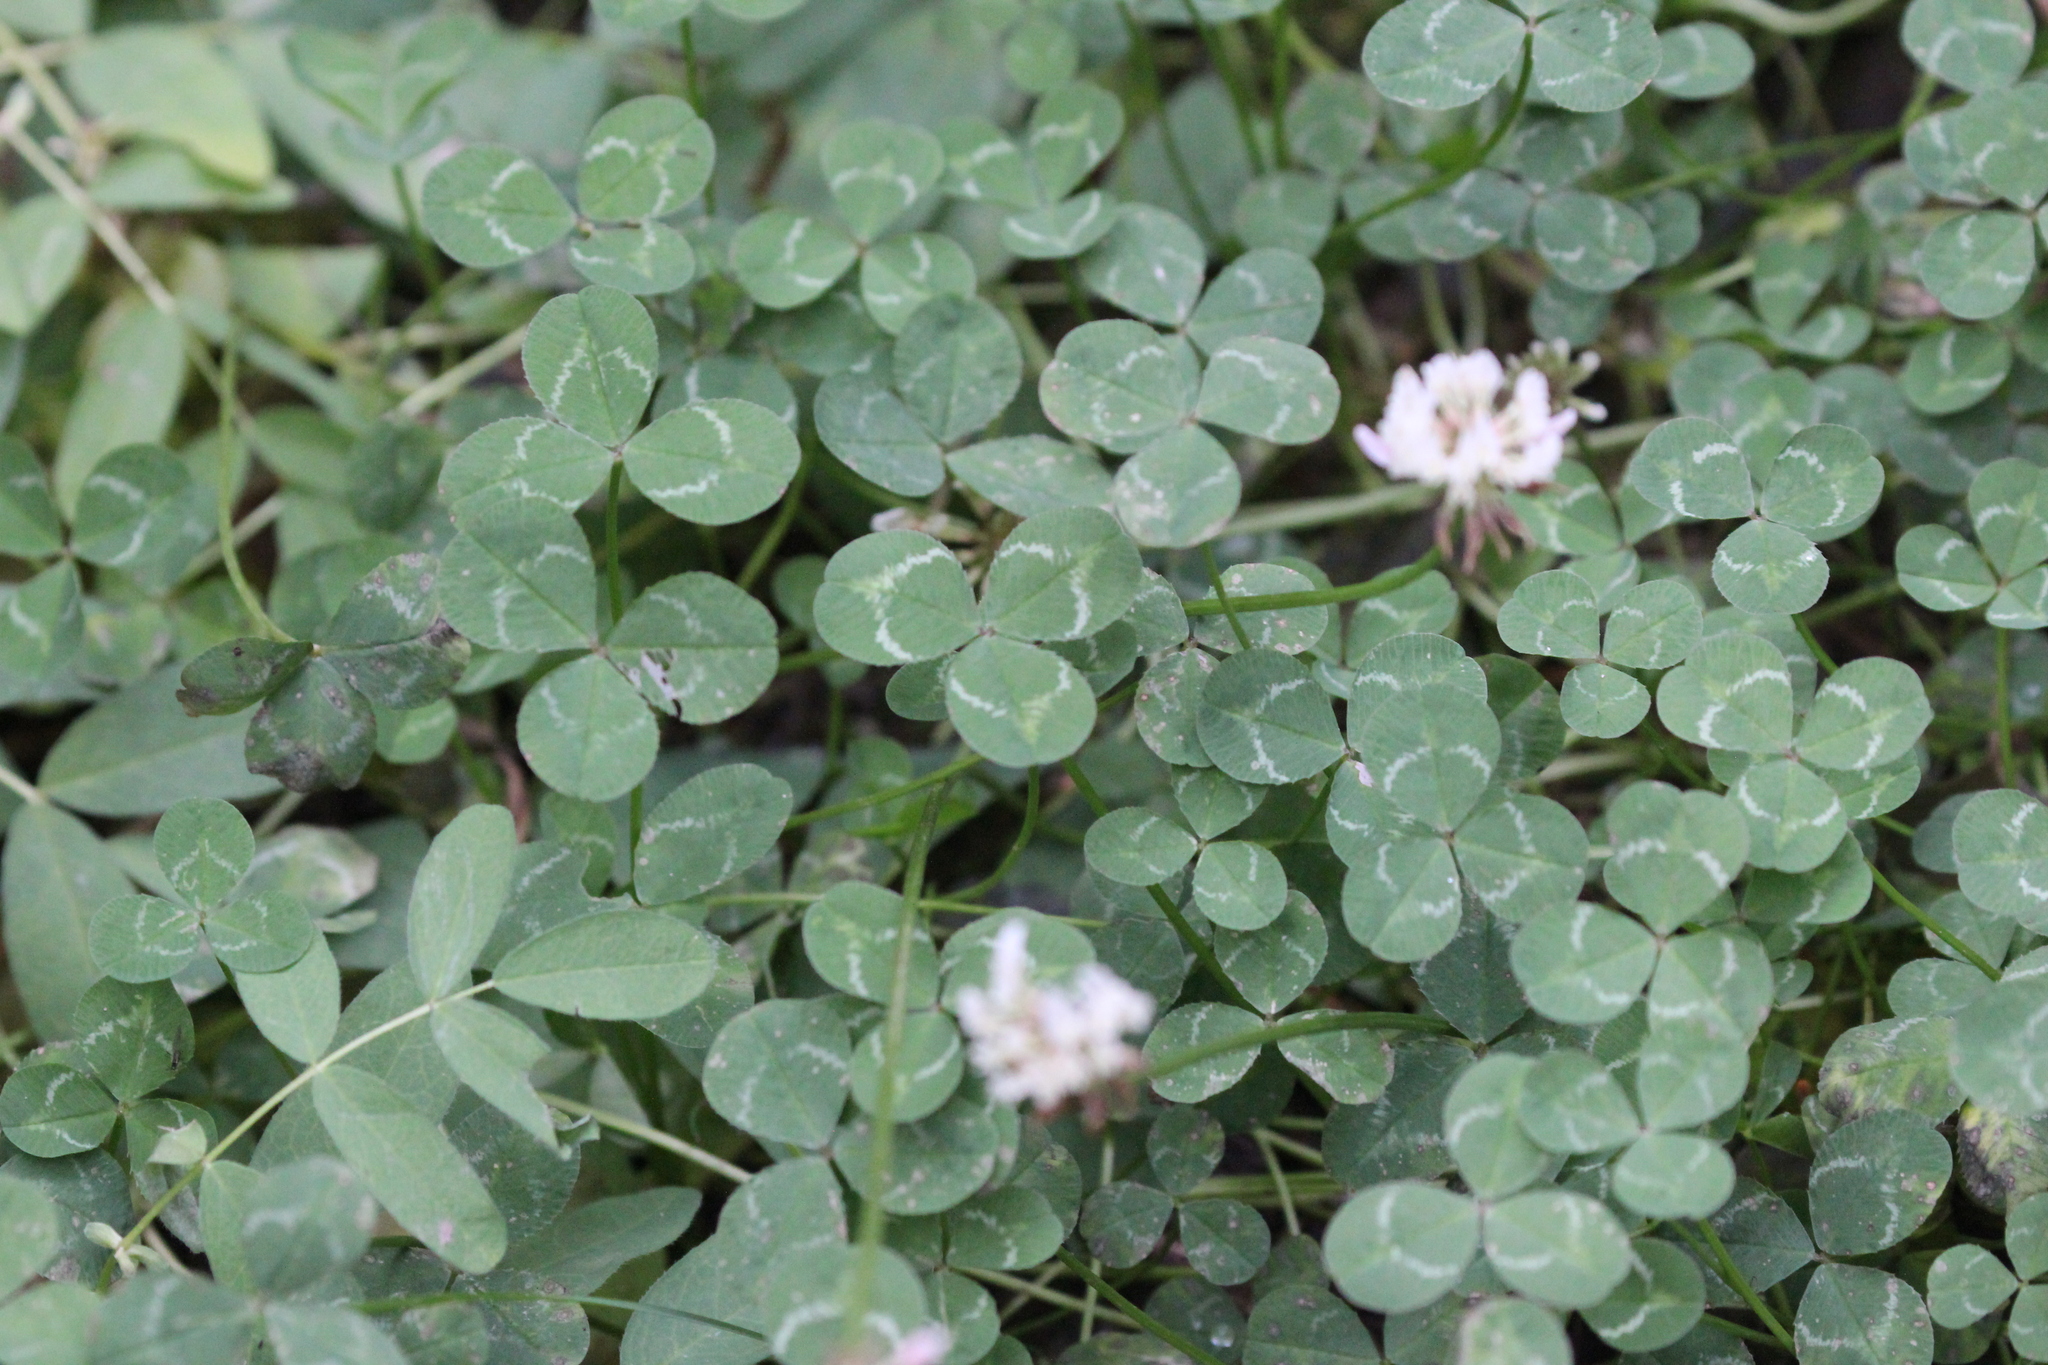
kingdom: Plantae
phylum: Tracheophyta
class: Magnoliopsida
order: Fabales
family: Fabaceae
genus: Trifolium
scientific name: Trifolium repens
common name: White clover
